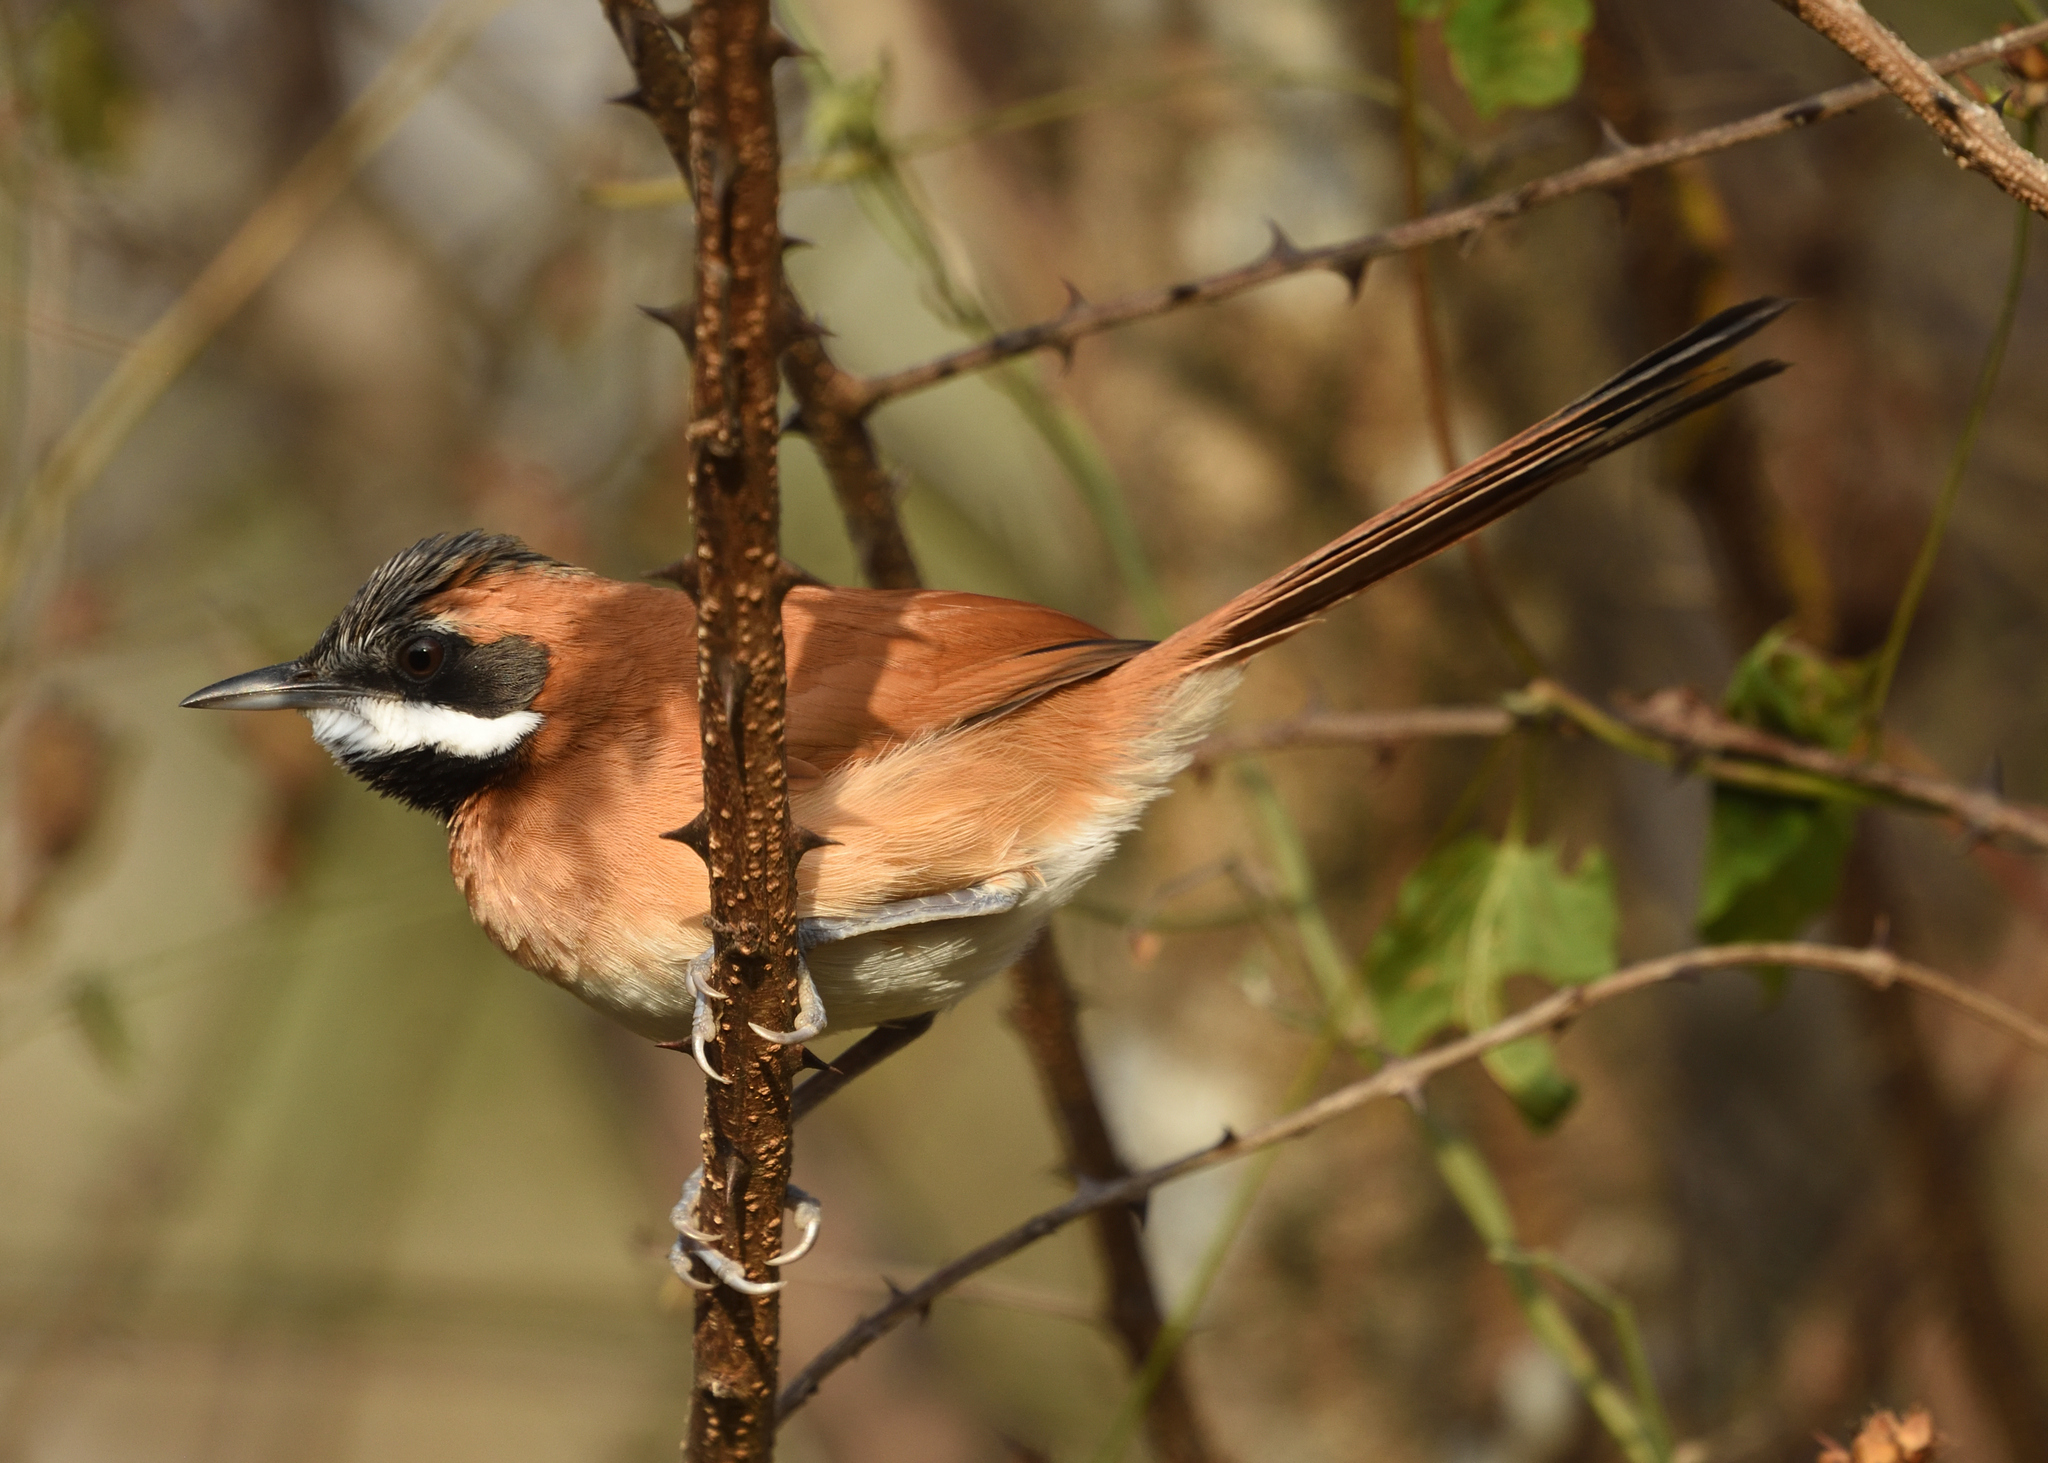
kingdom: Animalia
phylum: Chordata
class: Aves
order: Passeriformes
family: Furnariidae
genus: Synallaxis
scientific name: Synallaxis candei
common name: White-whiskered spinetail
